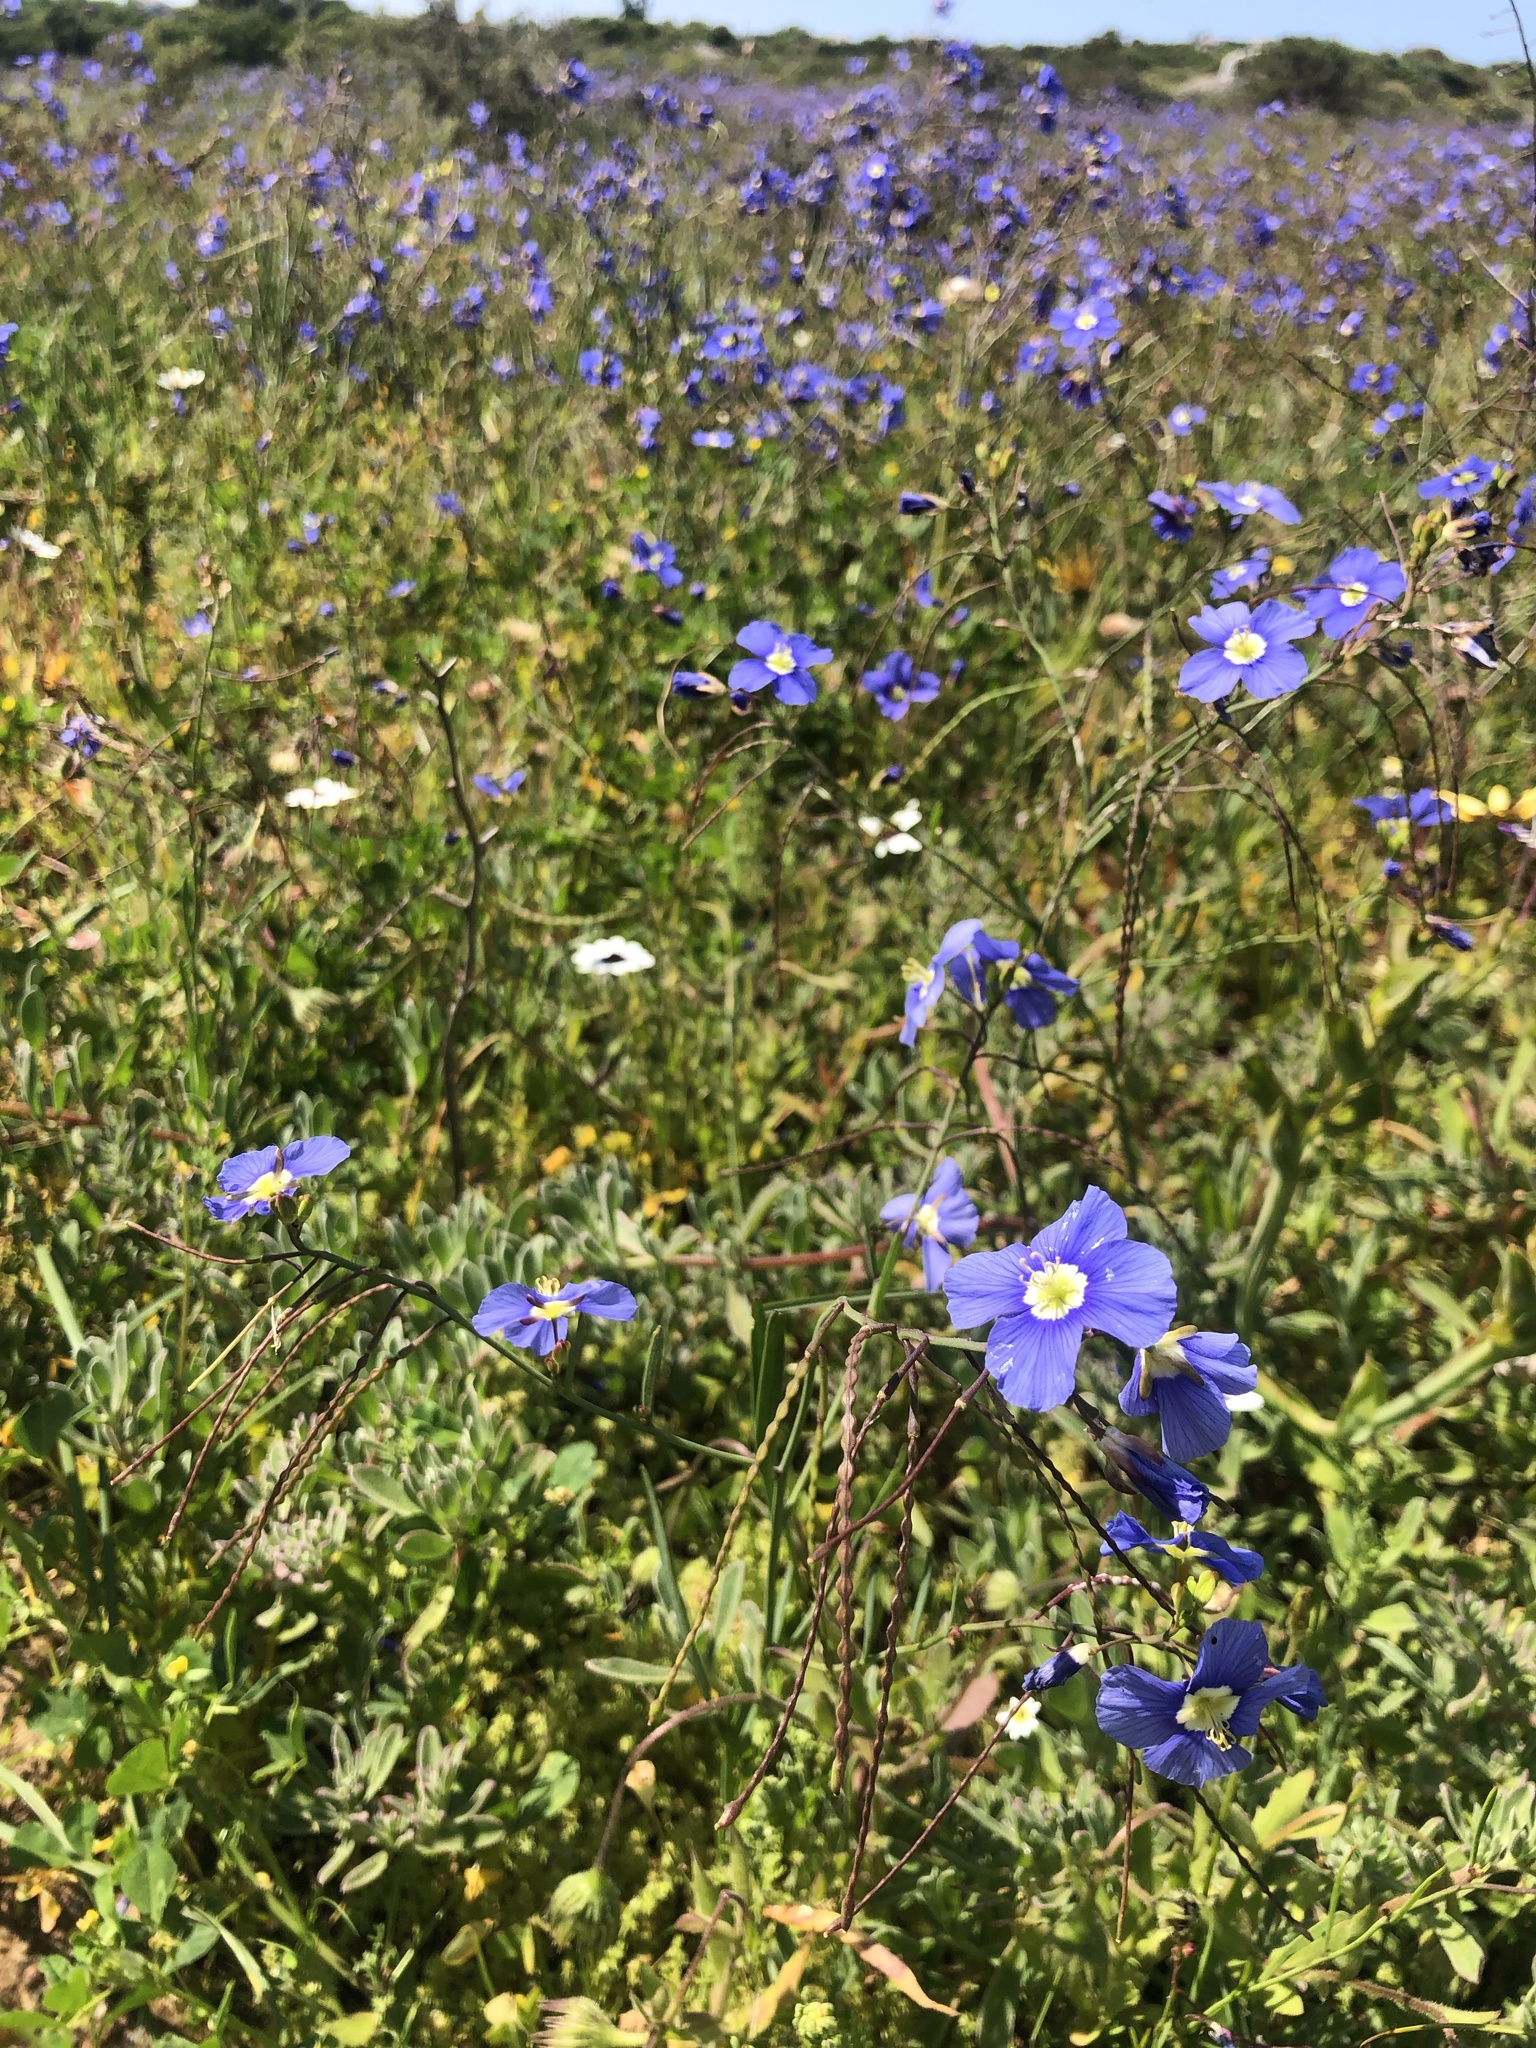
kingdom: Plantae
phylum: Tracheophyta
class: Magnoliopsida
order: Brassicales
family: Brassicaceae
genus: Heliophila
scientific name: Heliophila coronopifolia
